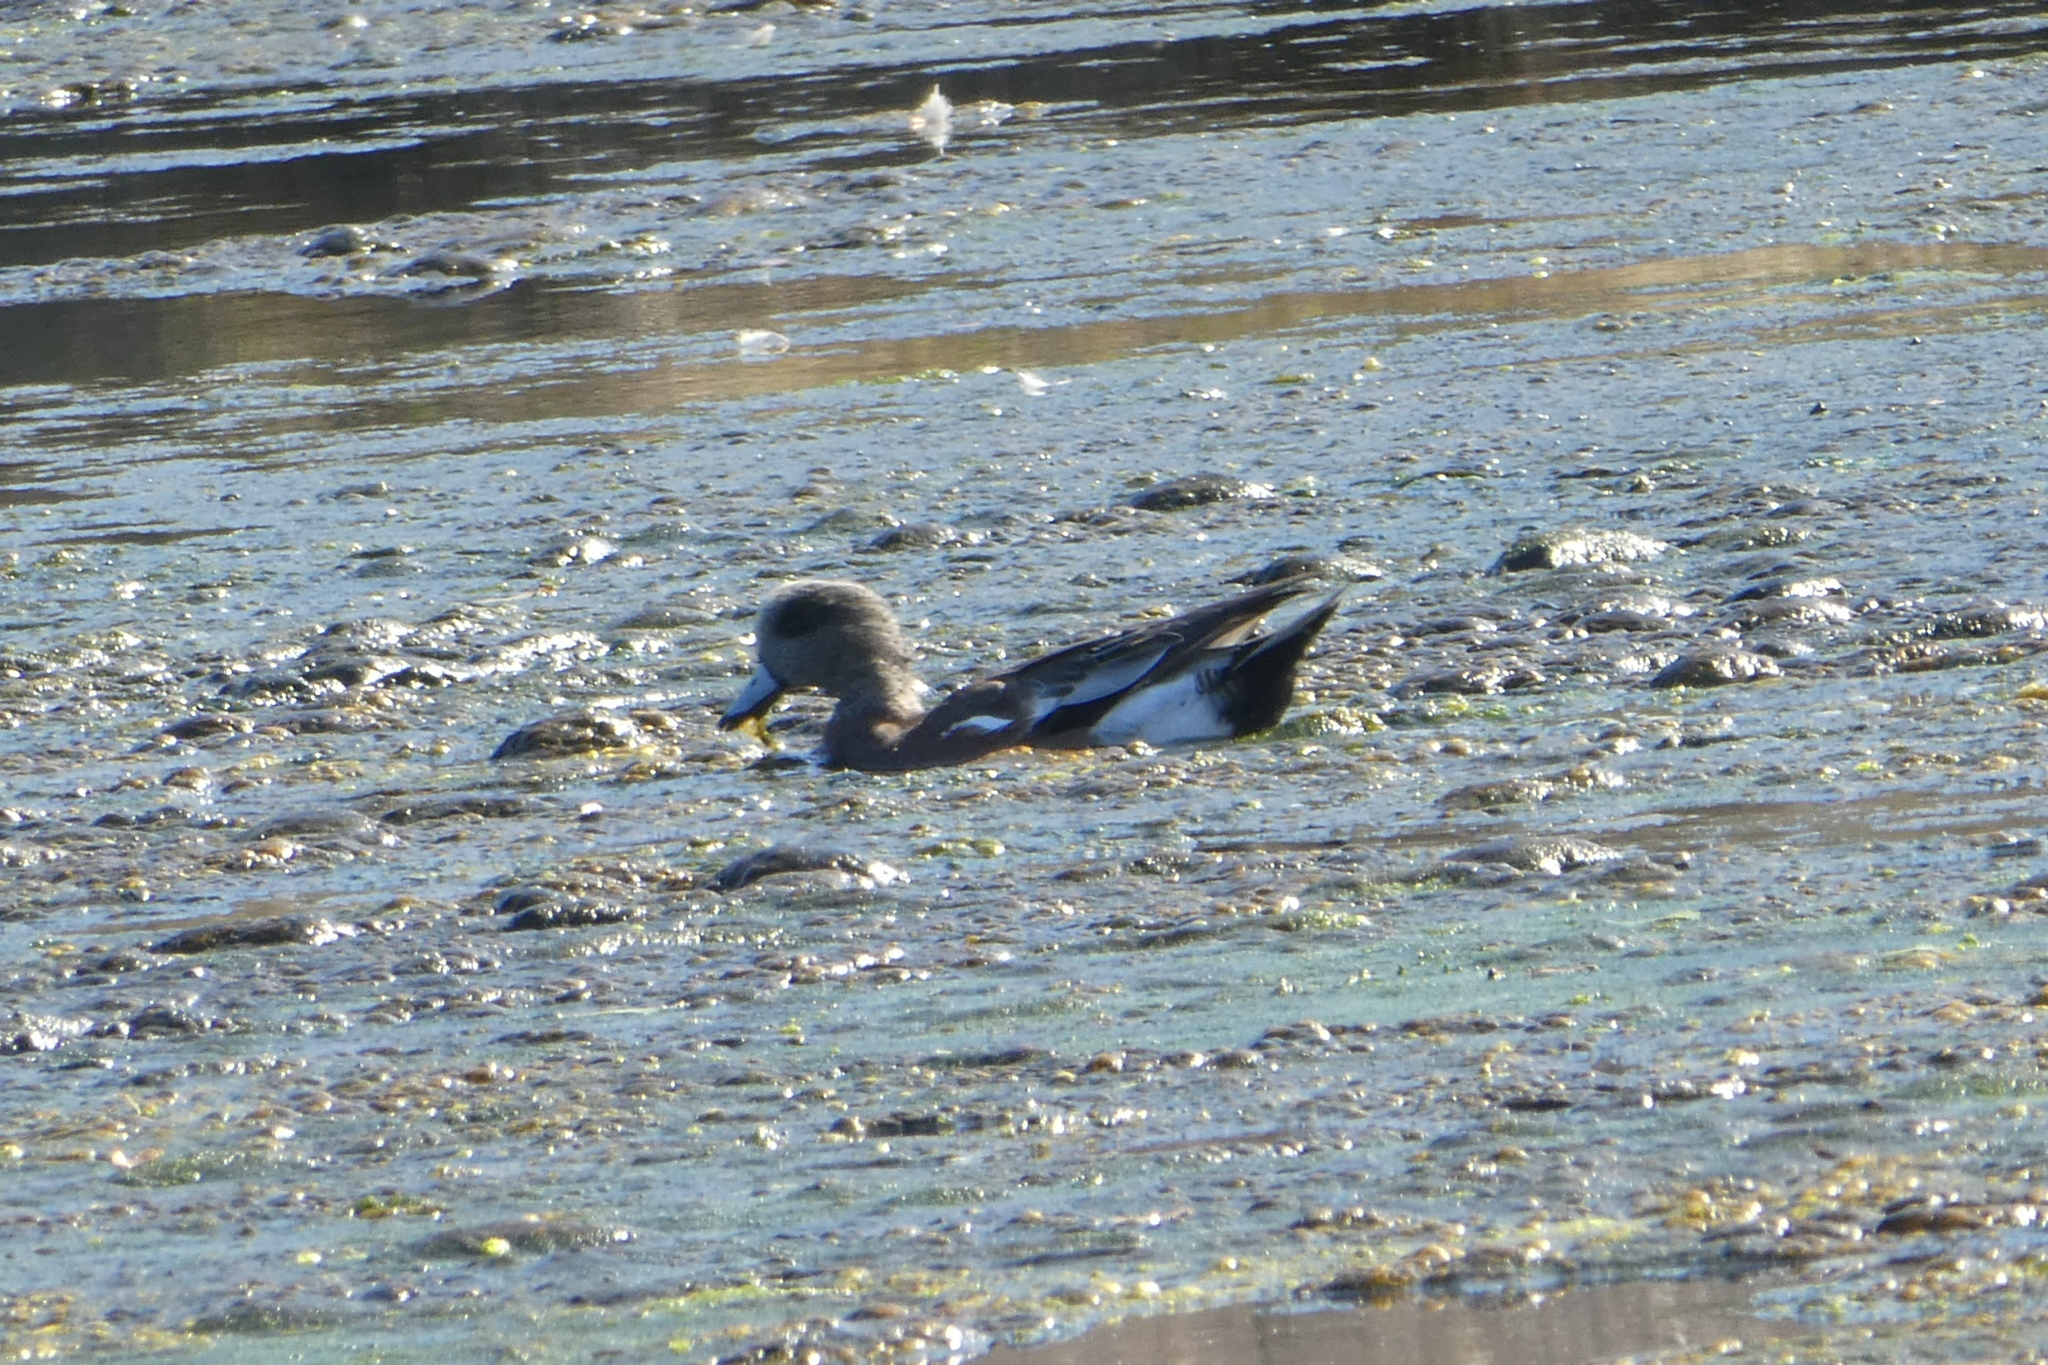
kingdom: Animalia
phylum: Chordata
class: Aves
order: Anseriformes
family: Anatidae
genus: Mareca
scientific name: Mareca americana
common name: American wigeon
